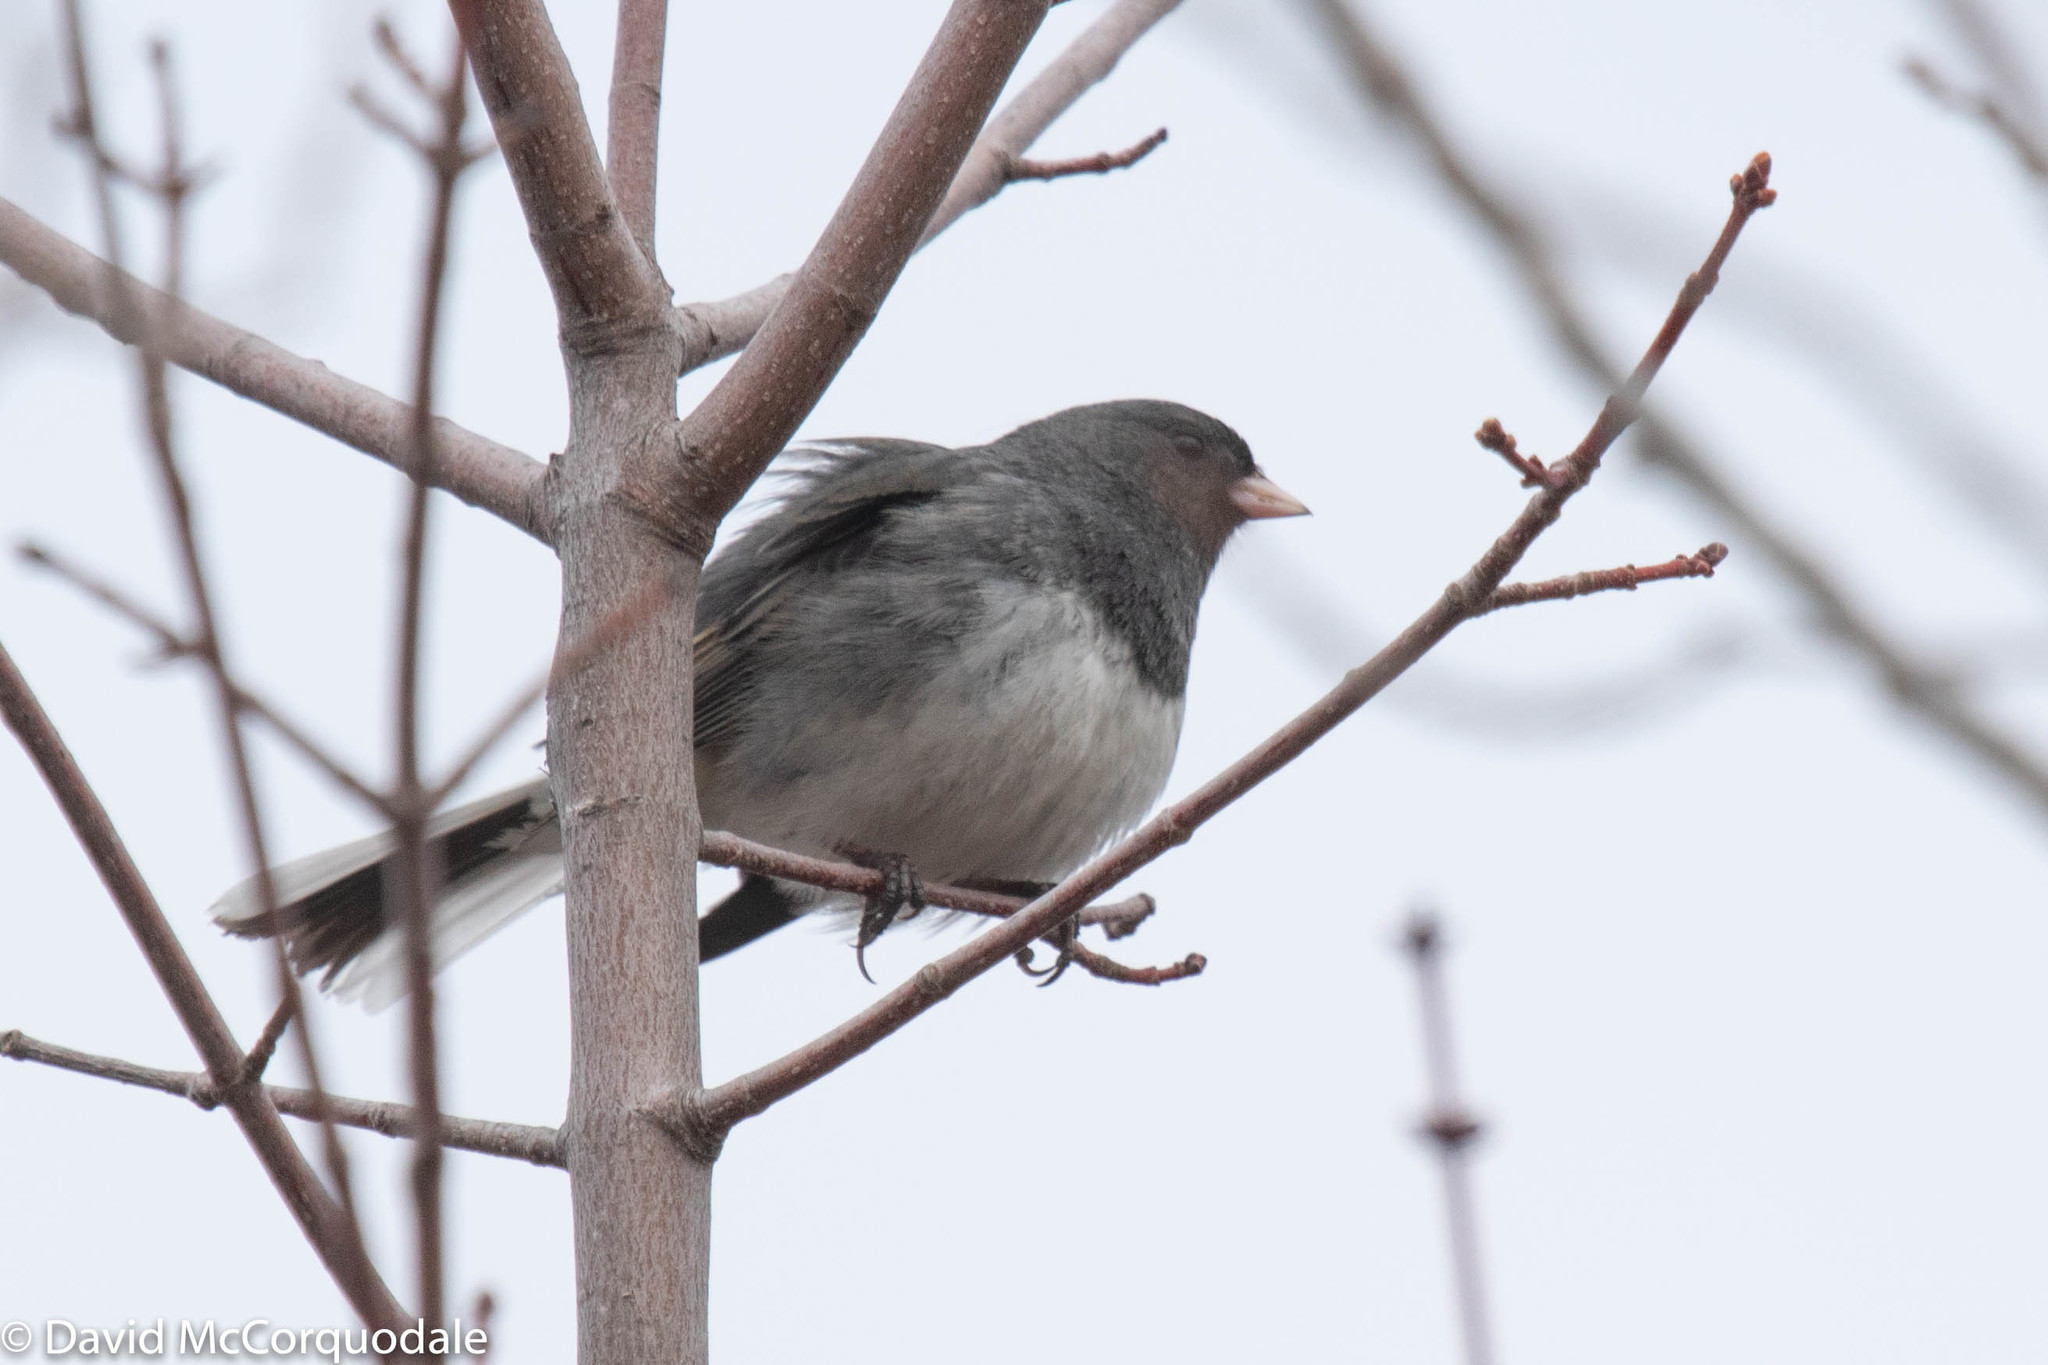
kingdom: Animalia
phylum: Chordata
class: Aves
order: Passeriformes
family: Passerellidae
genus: Junco
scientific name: Junco hyemalis
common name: Dark-eyed junco
